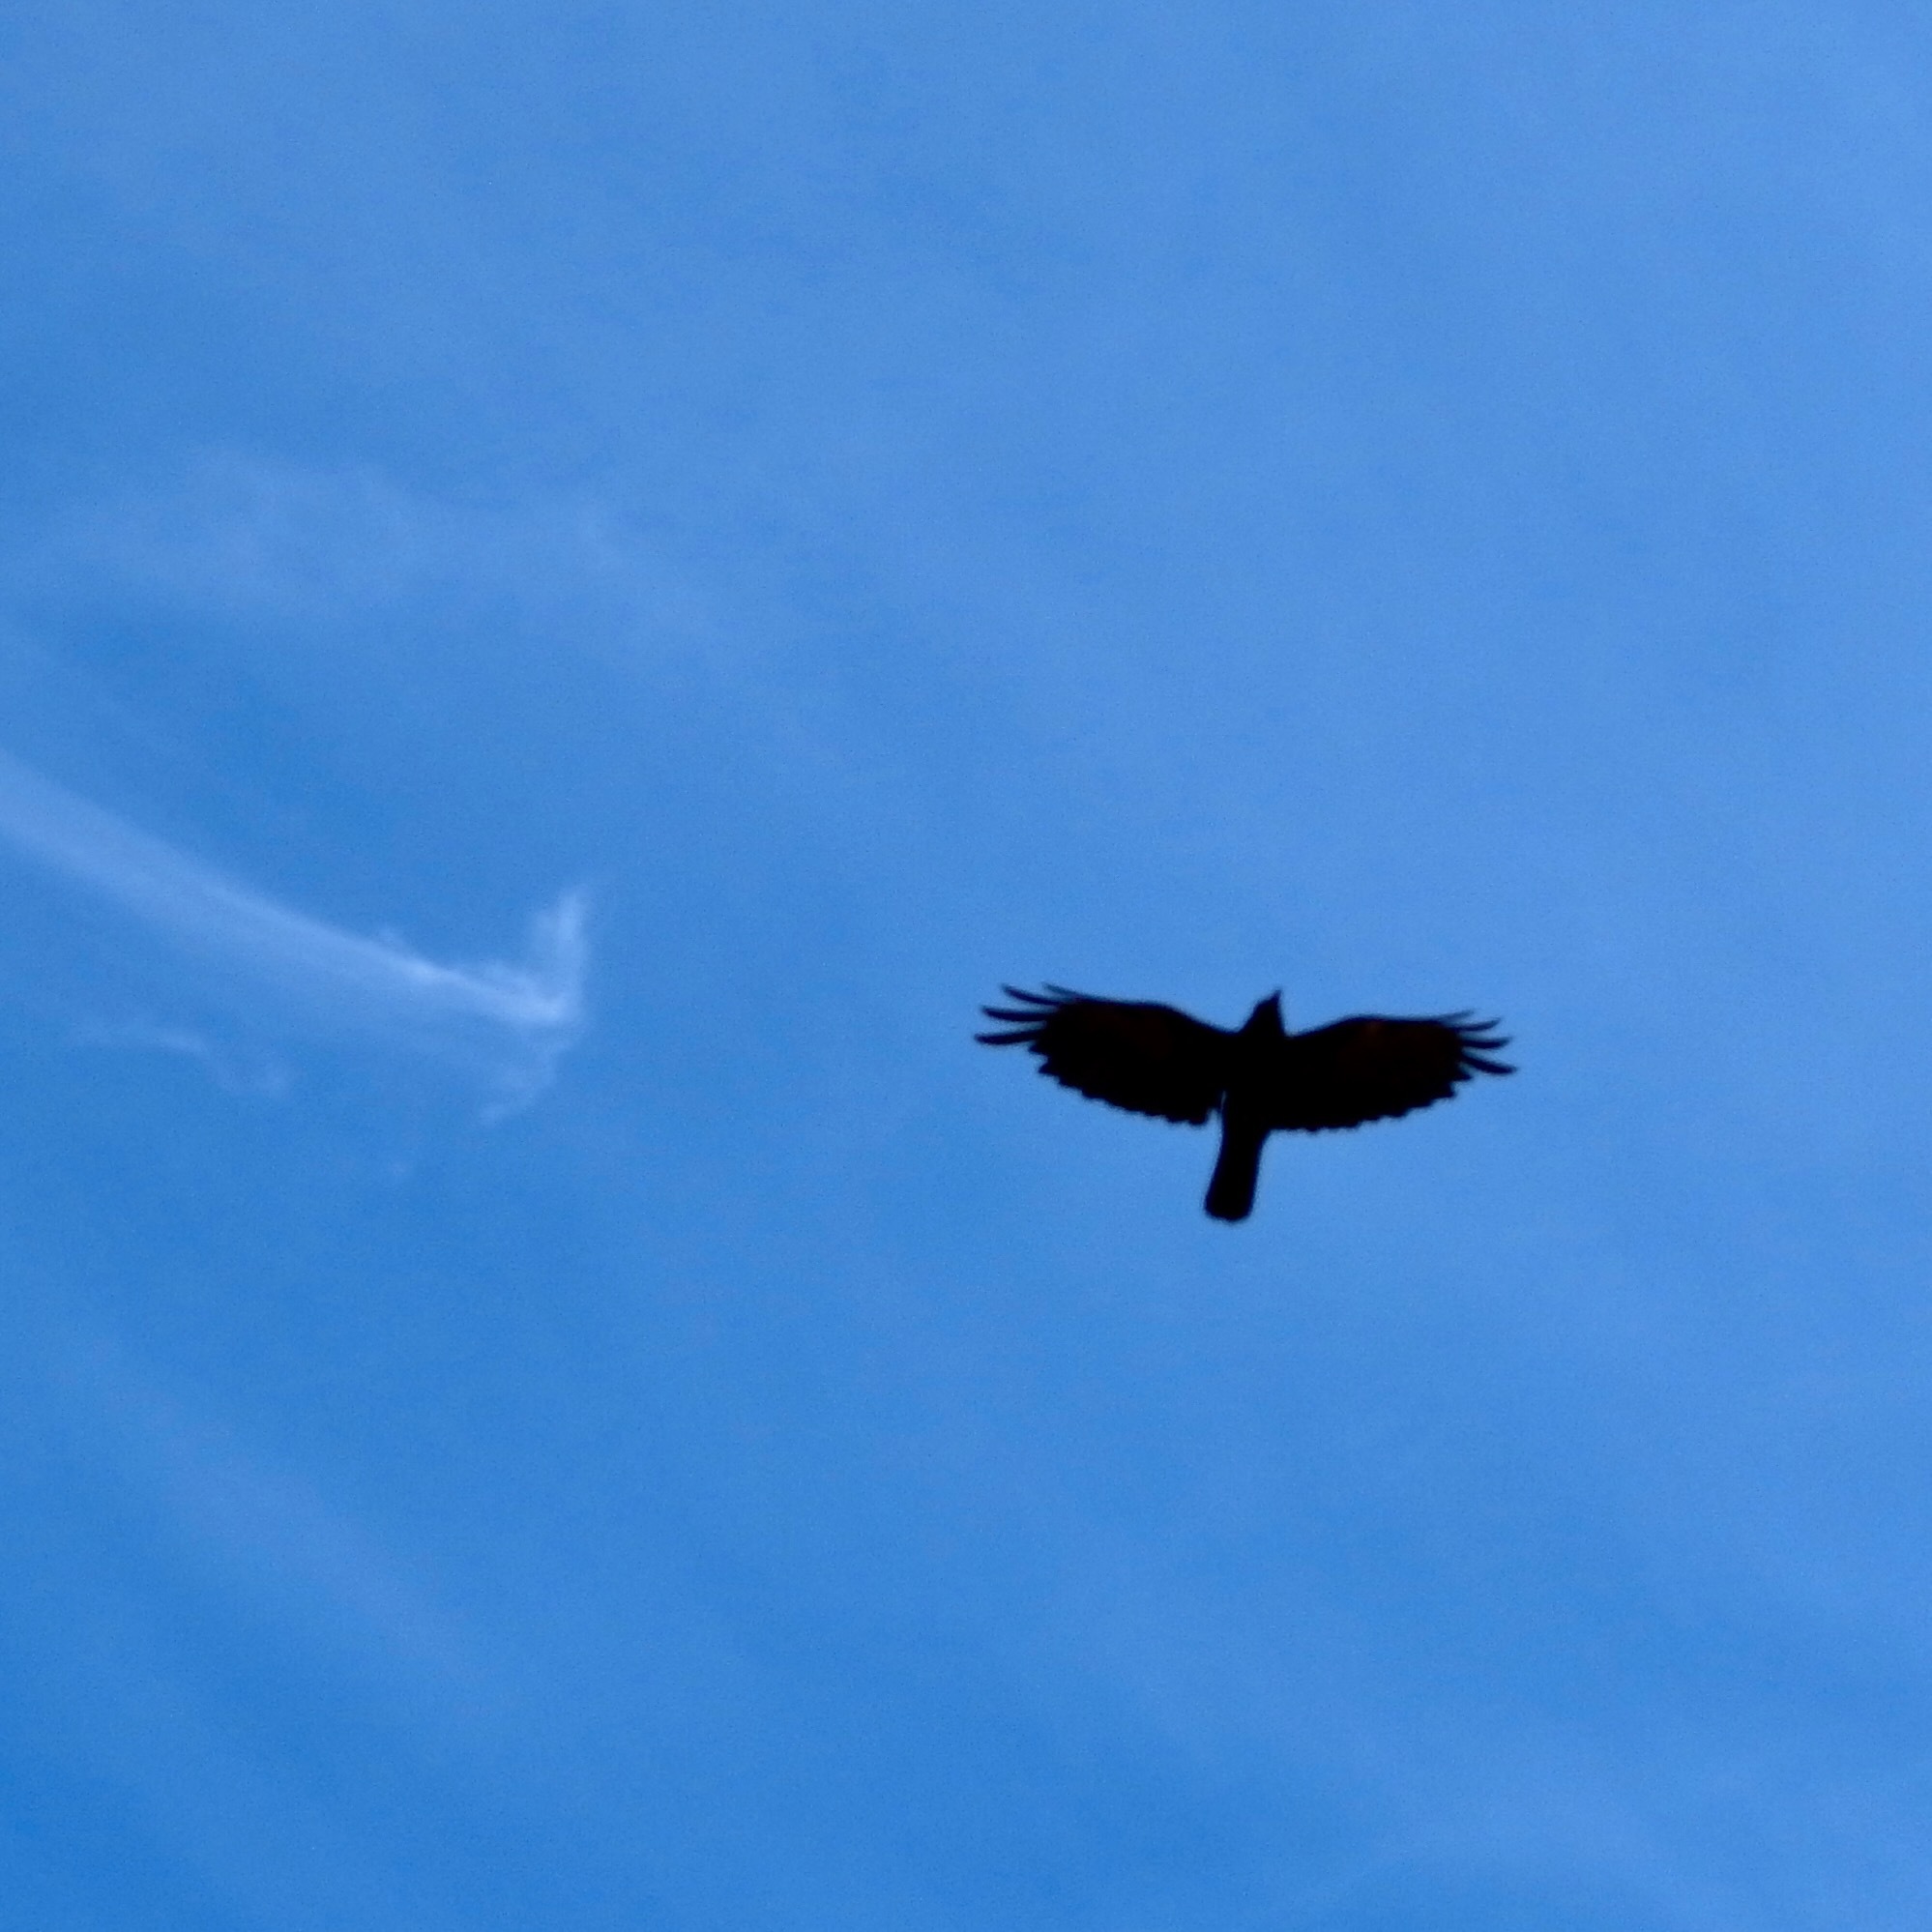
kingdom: Animalia
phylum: Chordata
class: Aves
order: Passeriformes
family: Corvidae
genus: Corvus
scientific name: Corvus brachyrhynchos
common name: American crow
